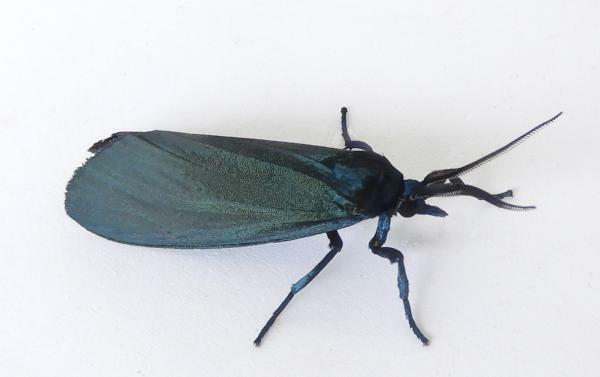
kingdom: Animalia
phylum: Arthropoda
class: Insecta
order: Lepidoptera
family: Erebidae
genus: Gardinia
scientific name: Gardinia anopla
